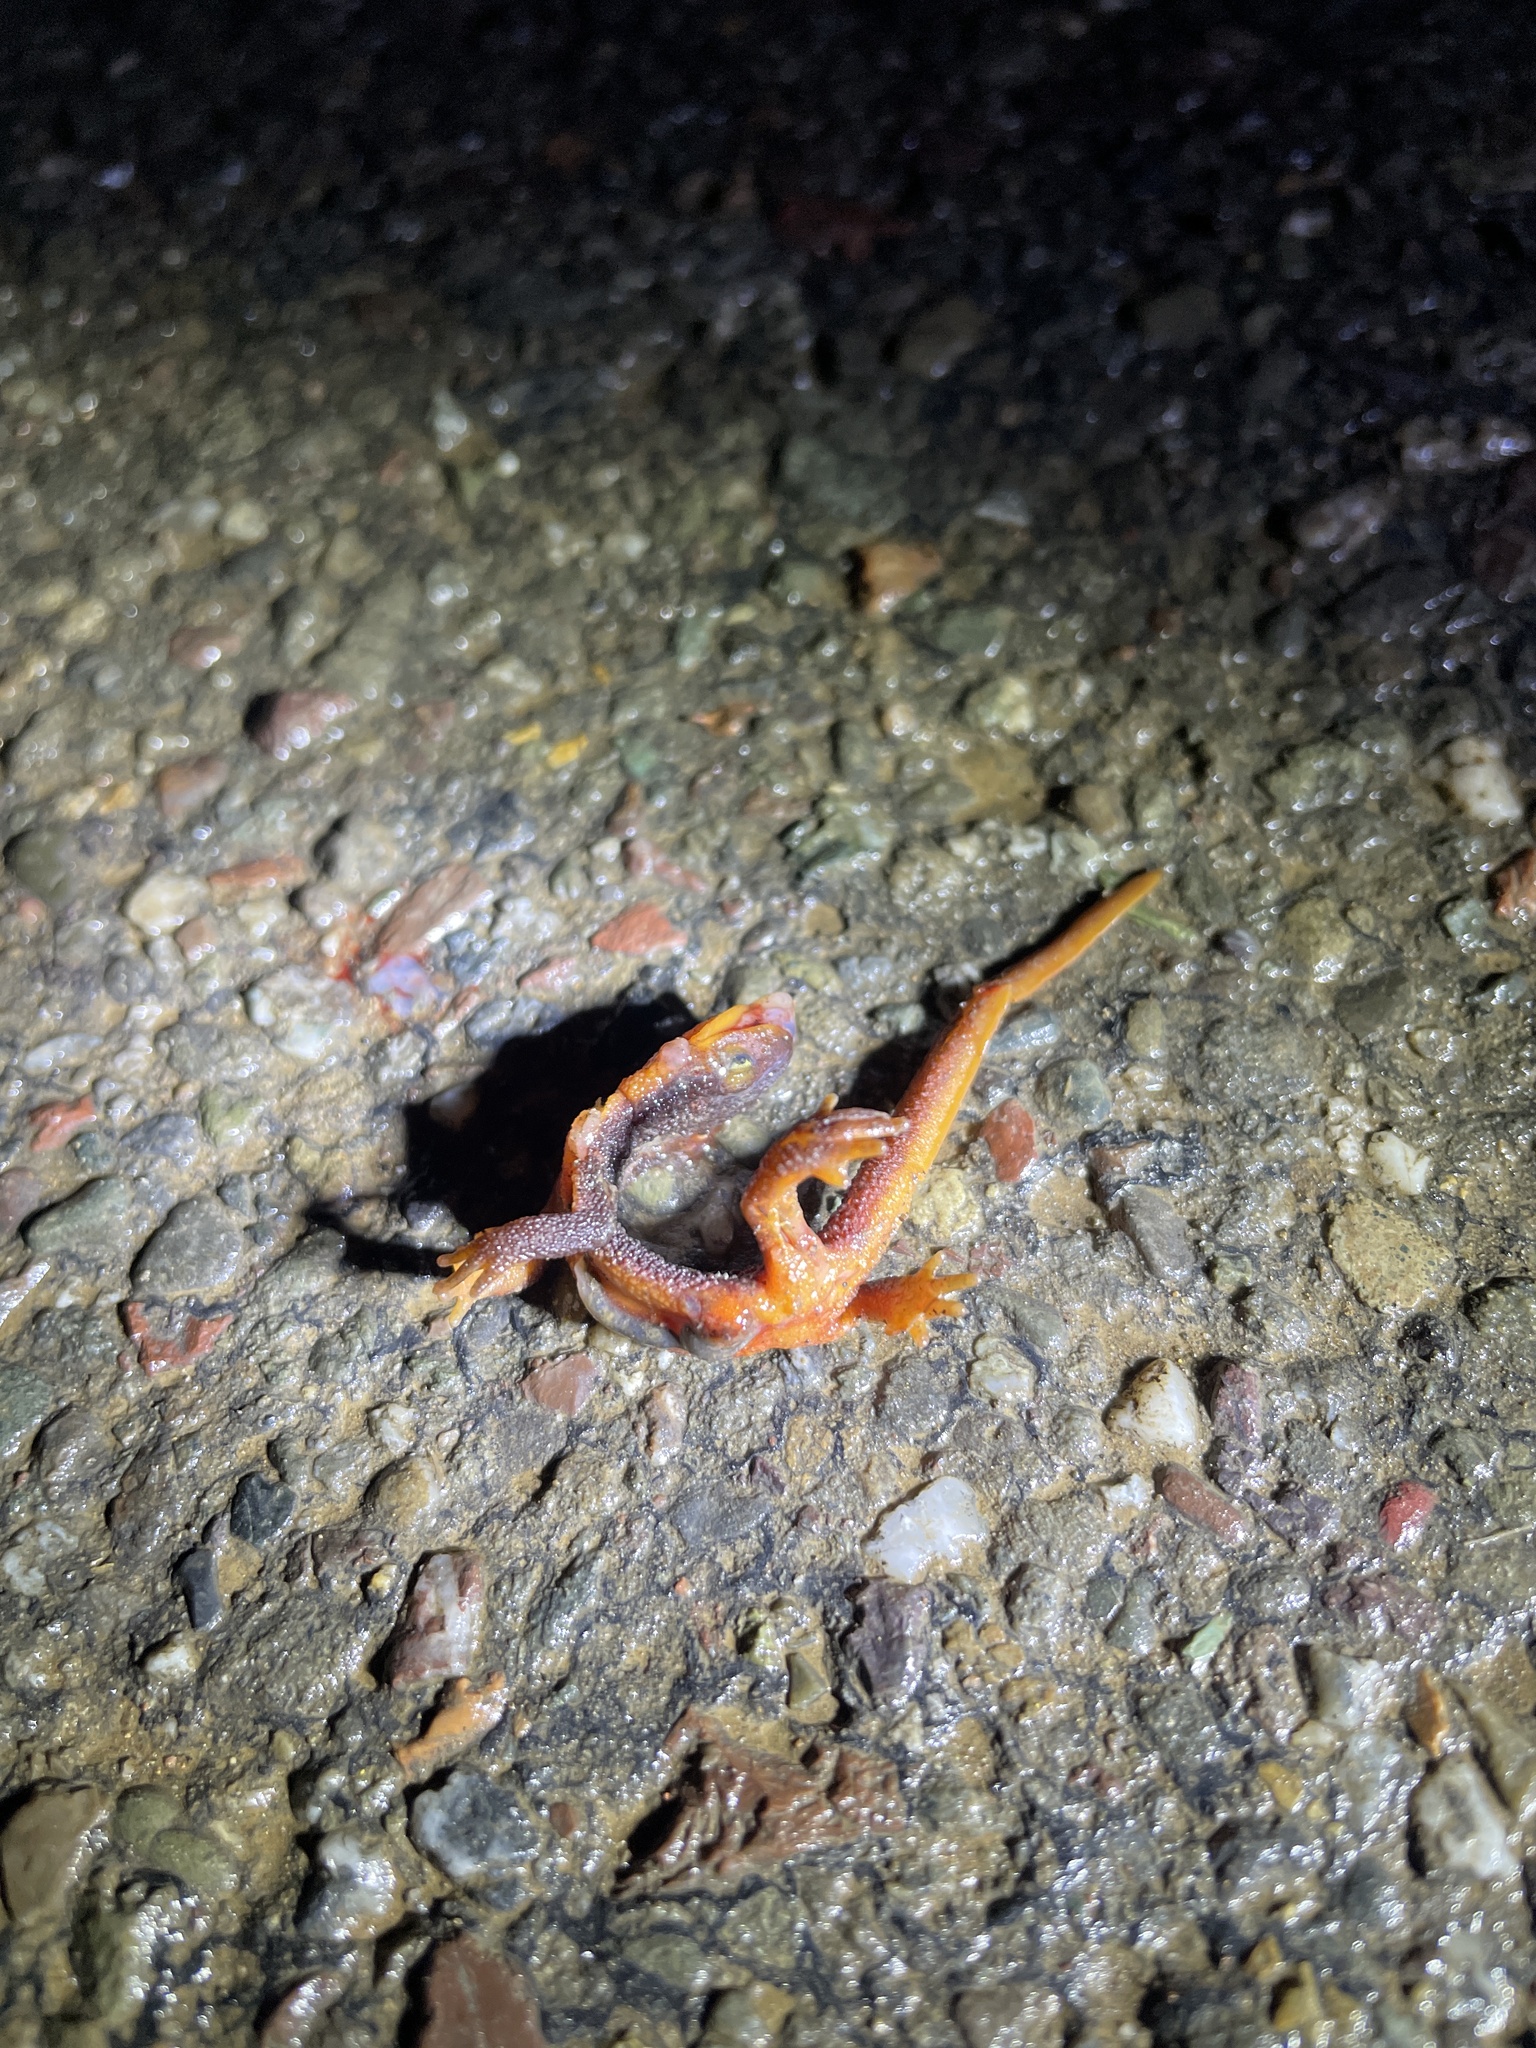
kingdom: Animalia
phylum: Chordata
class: Amphibia
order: Caudata
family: Salamandridae
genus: Taricha
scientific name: Taricha
